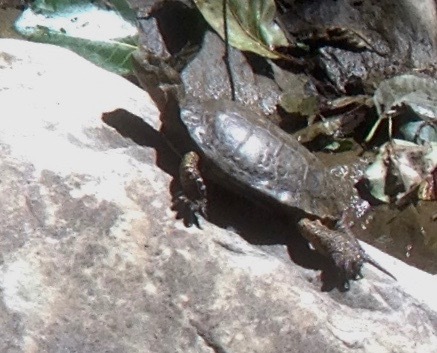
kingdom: Animalia
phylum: Chordata
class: Testudines
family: Emydidae
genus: Actinemys
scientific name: Actinemys marmorata
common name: Western pond turtle
